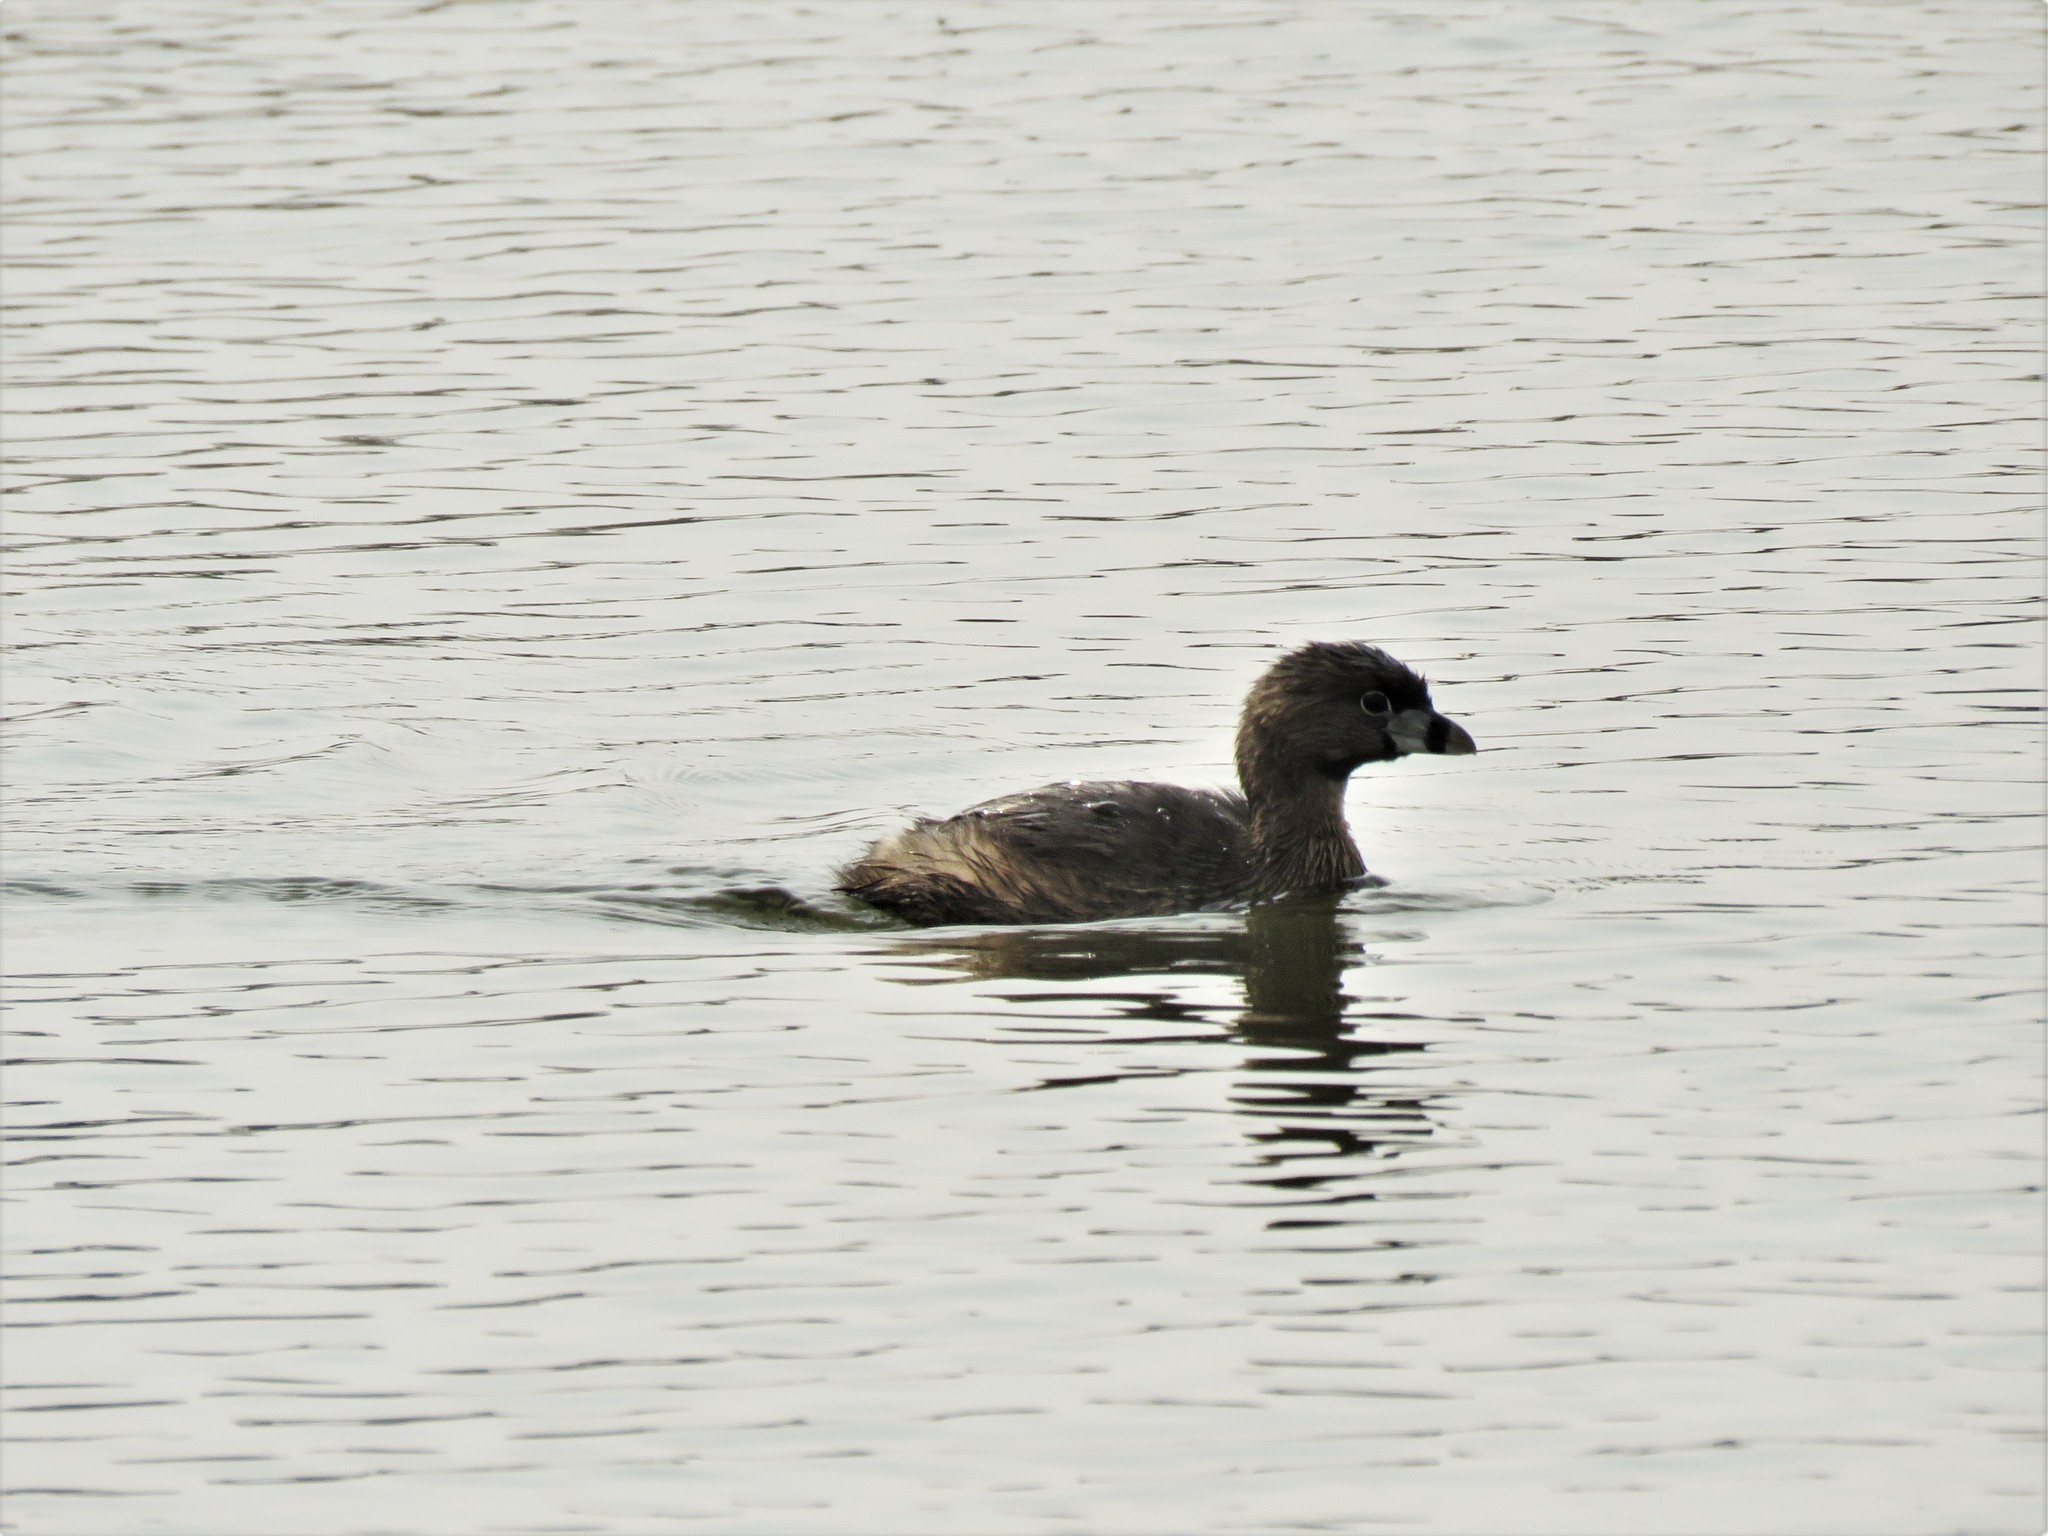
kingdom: Animalia
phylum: Chordata
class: Aves
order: Podicipediformes
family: Podicipedidae
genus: Podilymbus
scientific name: Podilymbus podiceps
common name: Pied-billed grebe
